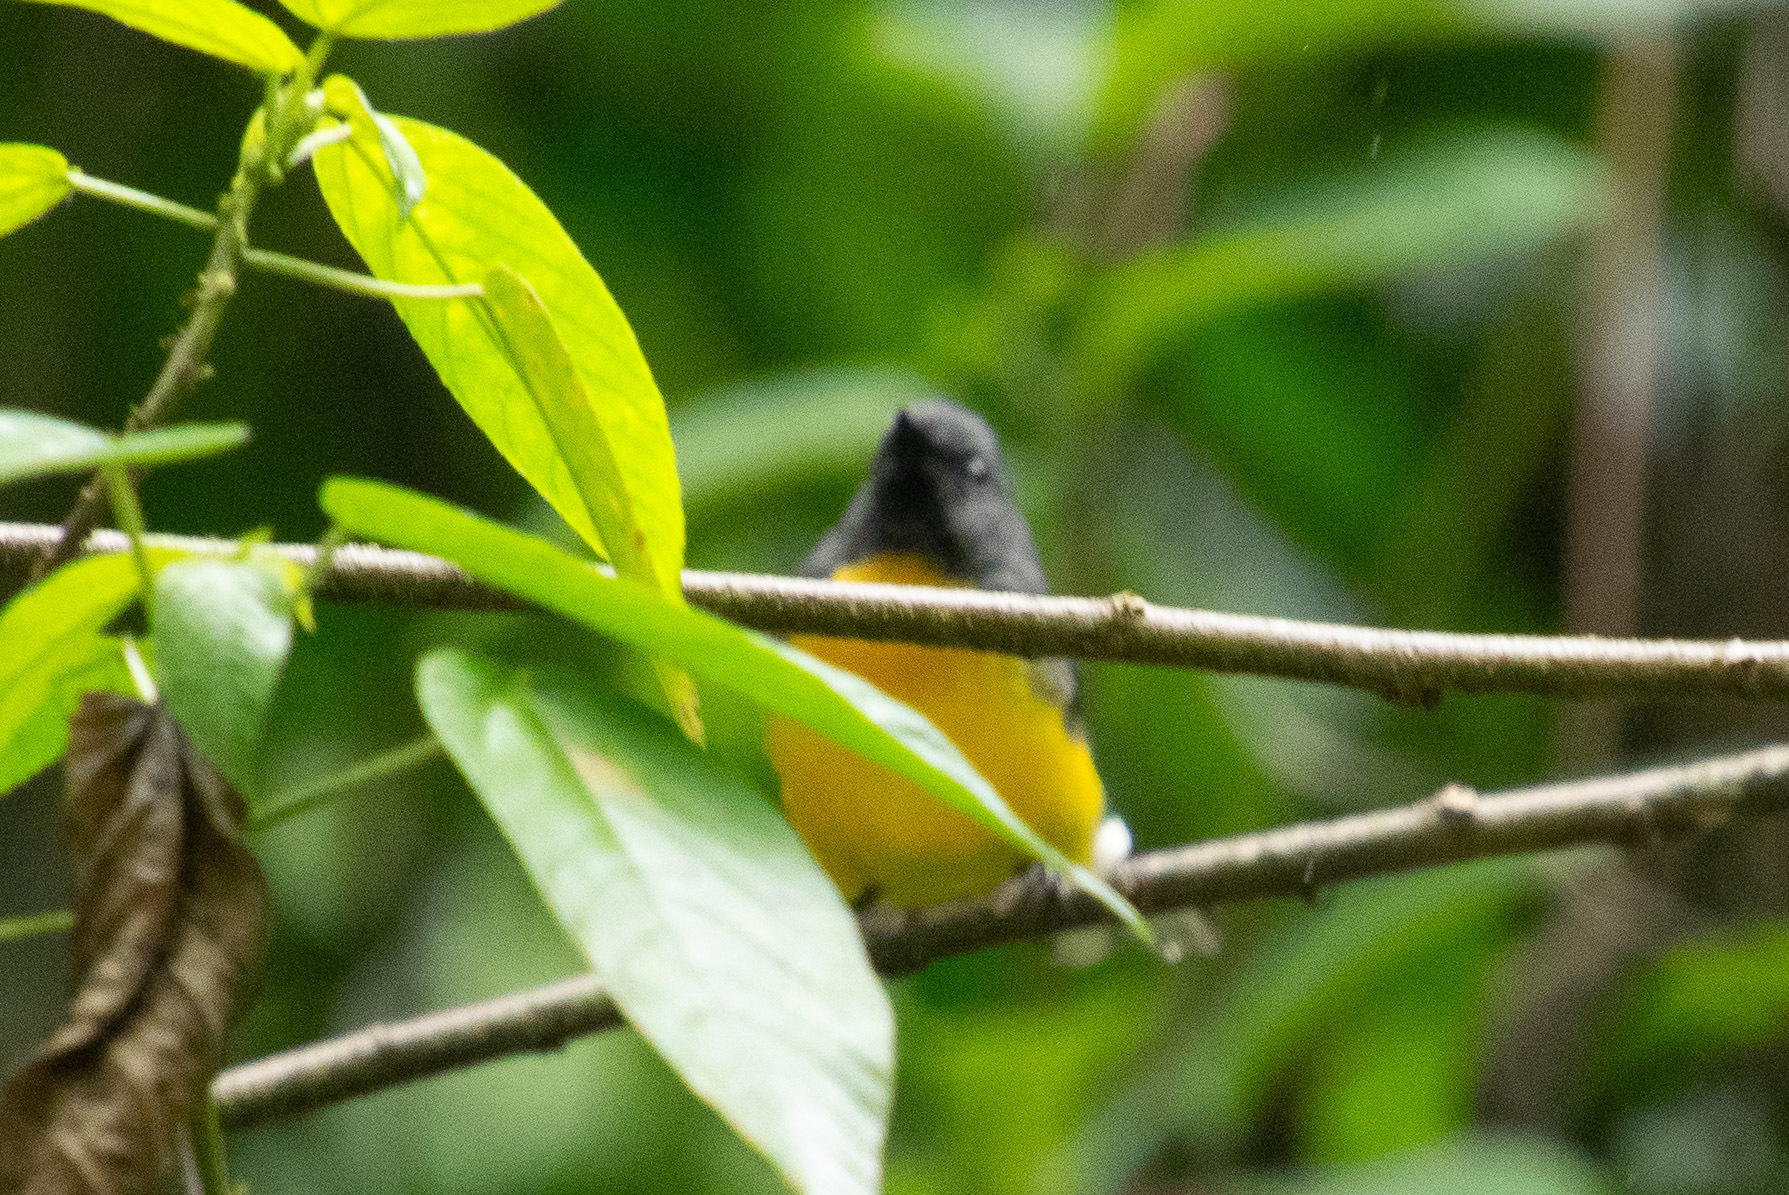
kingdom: Animalia
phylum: Chordata
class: Aves
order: Passeriformes
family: Parulidae
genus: Myioborus
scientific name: Myioborus miniatus
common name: Slate-throated redstart
